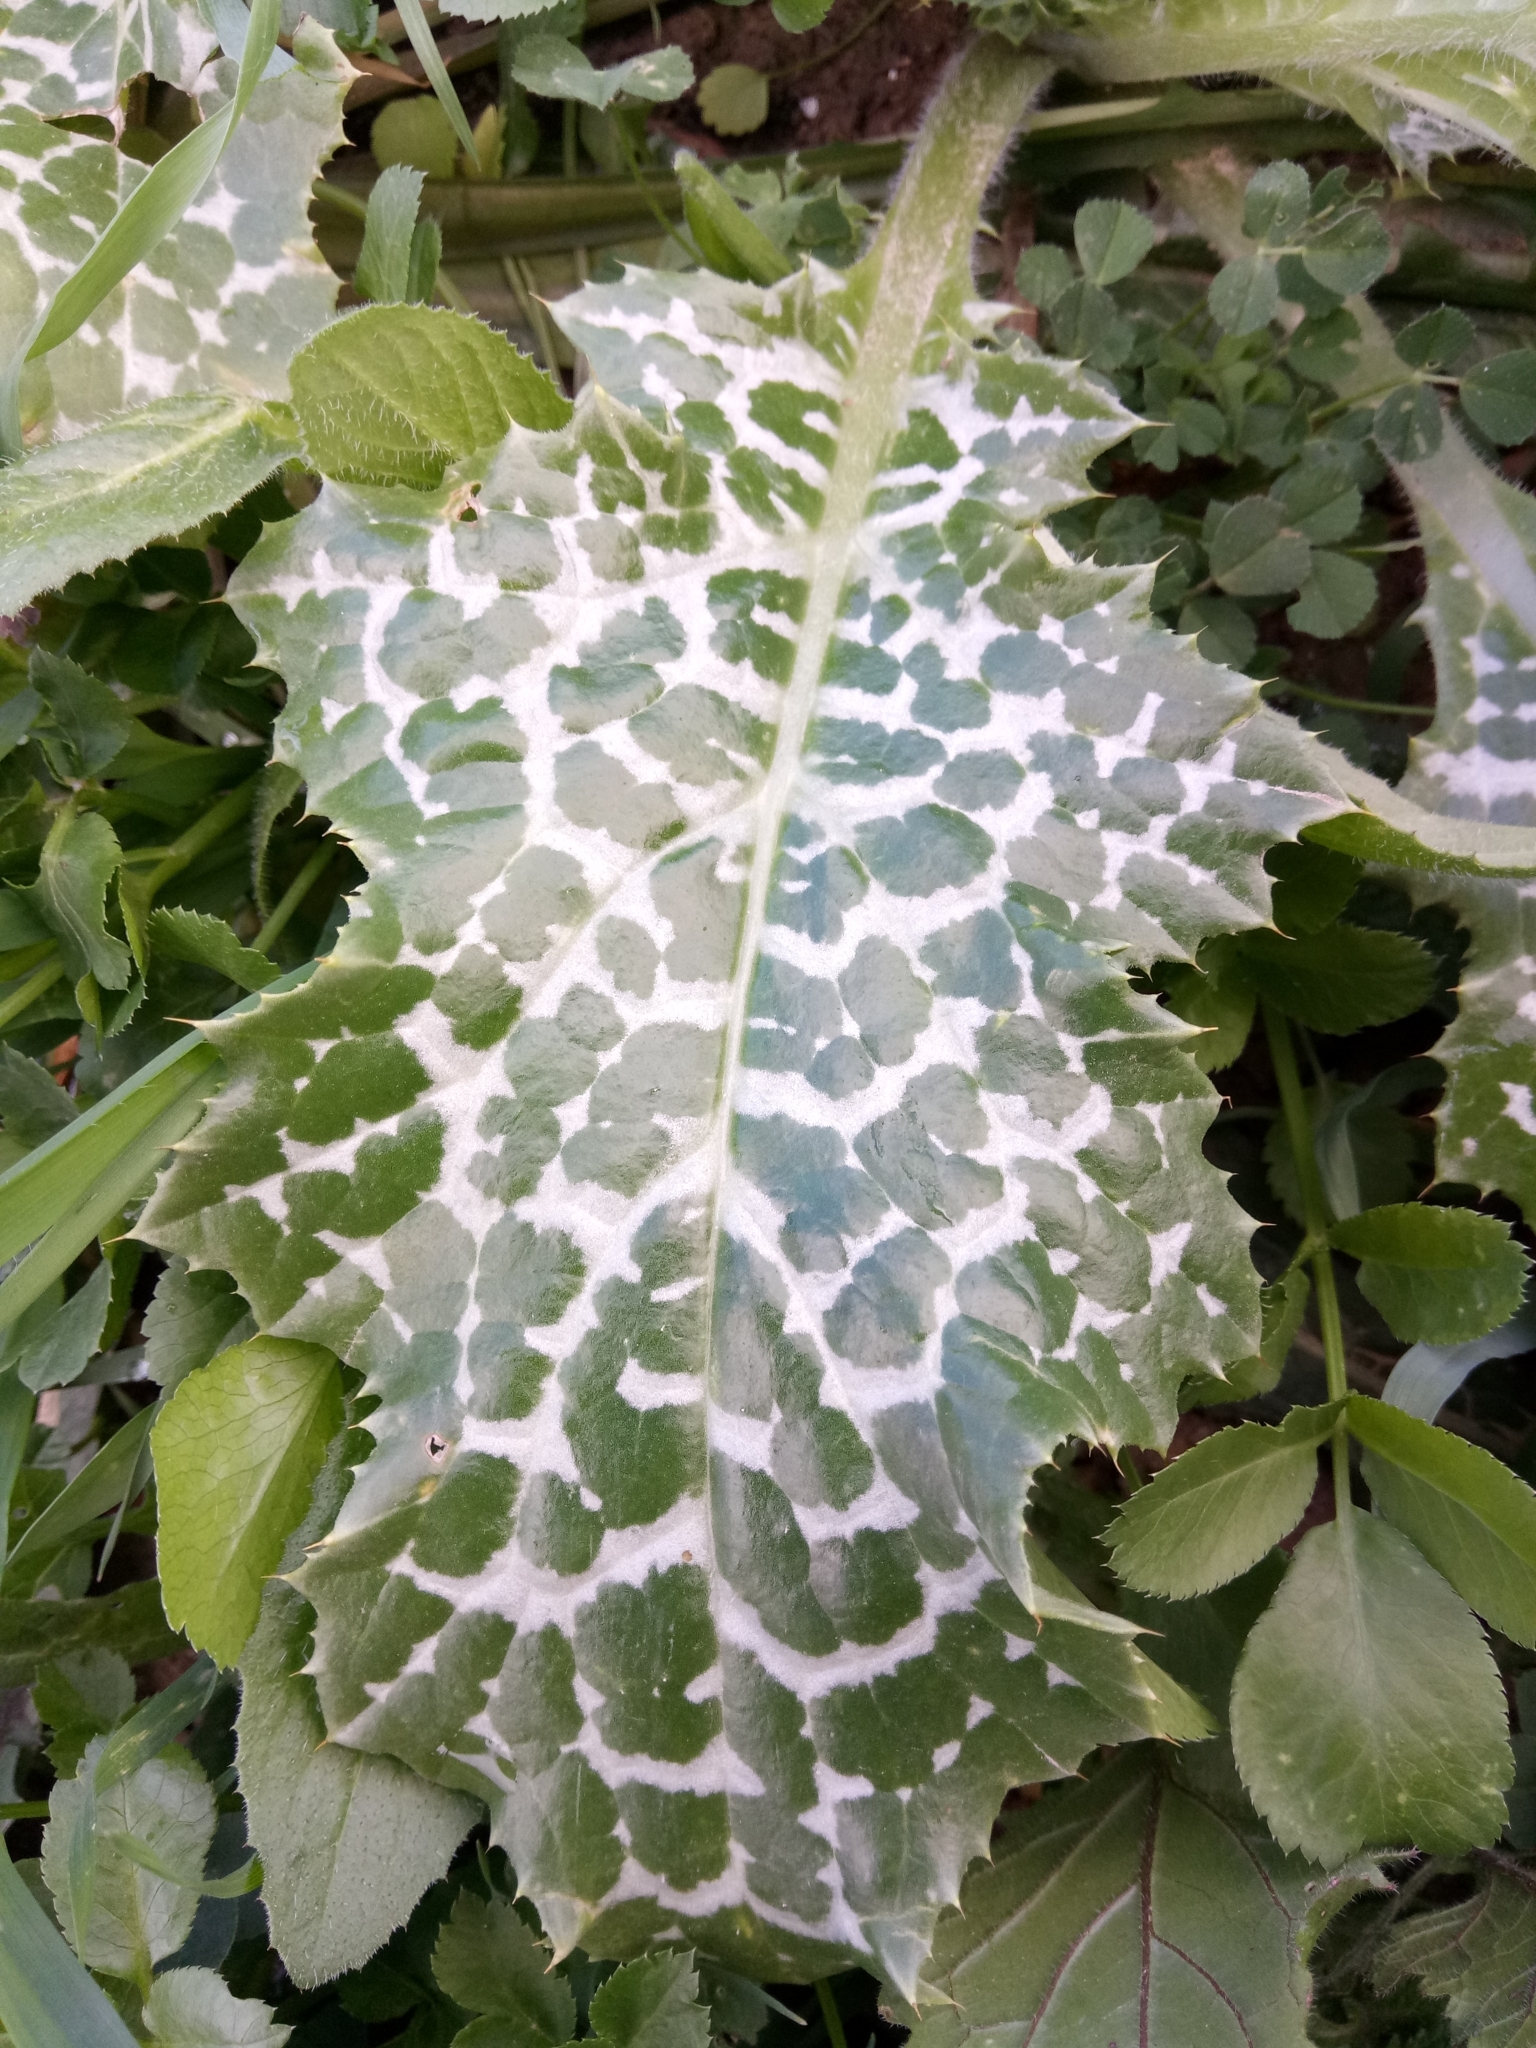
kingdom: Plantae
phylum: Tracheophyta
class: Magnoliopsida
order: Asterales
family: Asteraceae
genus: Silybum
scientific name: Silybum marianum
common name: Milk thistle
